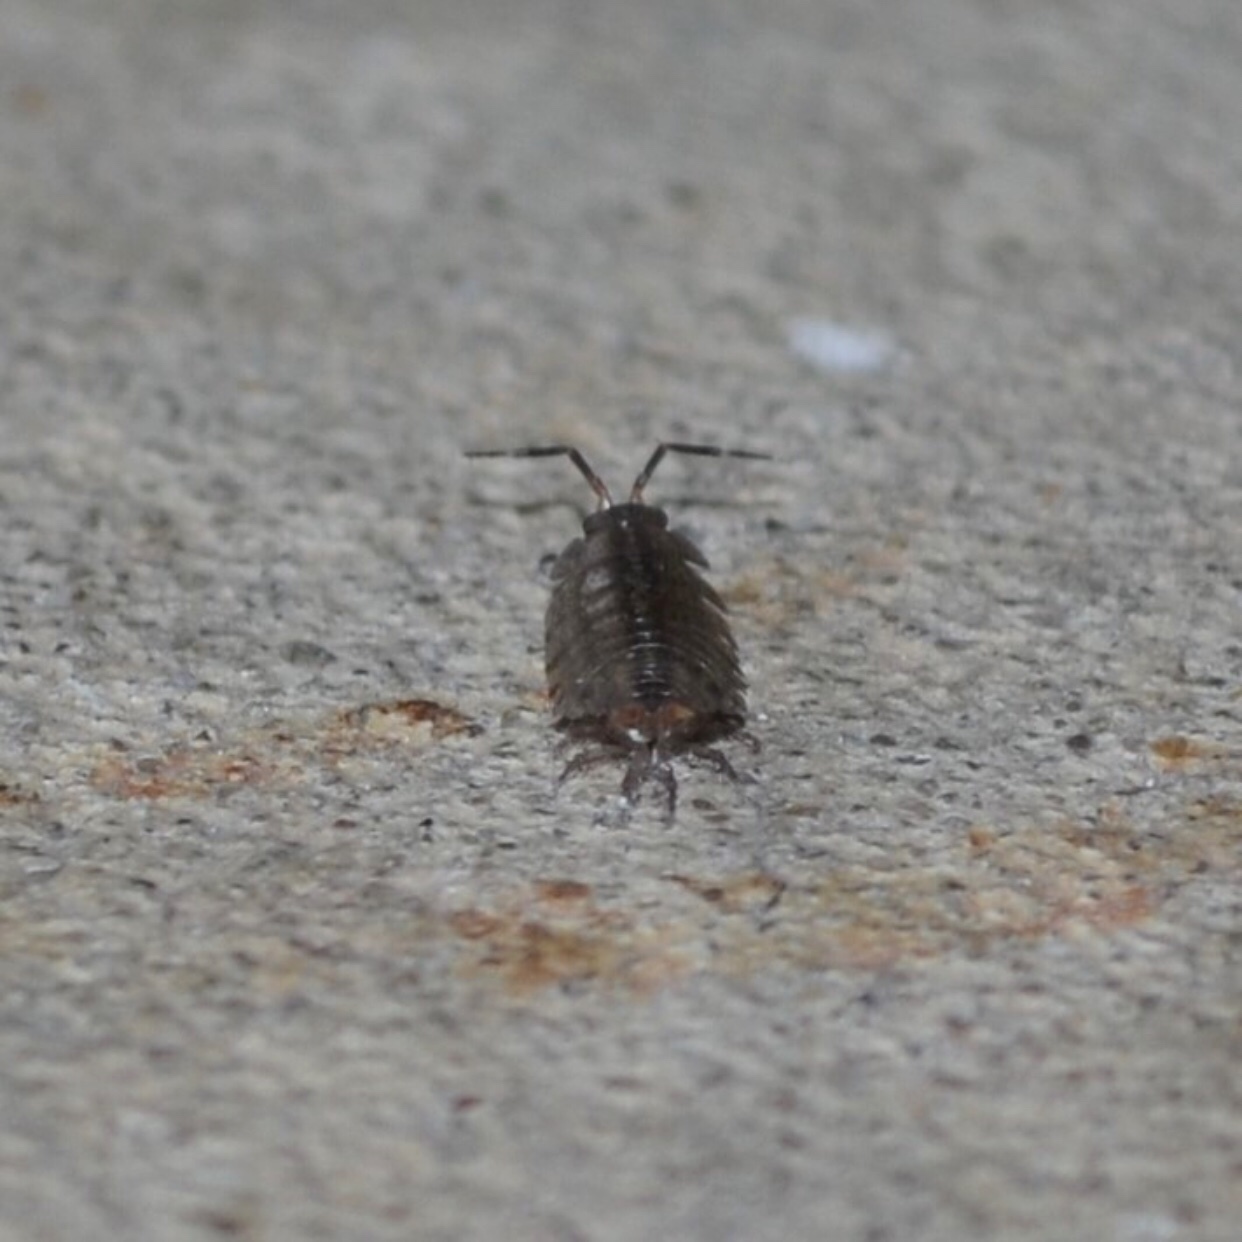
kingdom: Animalia
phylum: Arthropoda
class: Malacostraca
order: Isopoda
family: Porcellionidae
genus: Porcellionides
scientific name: Porcellionides virgatus
